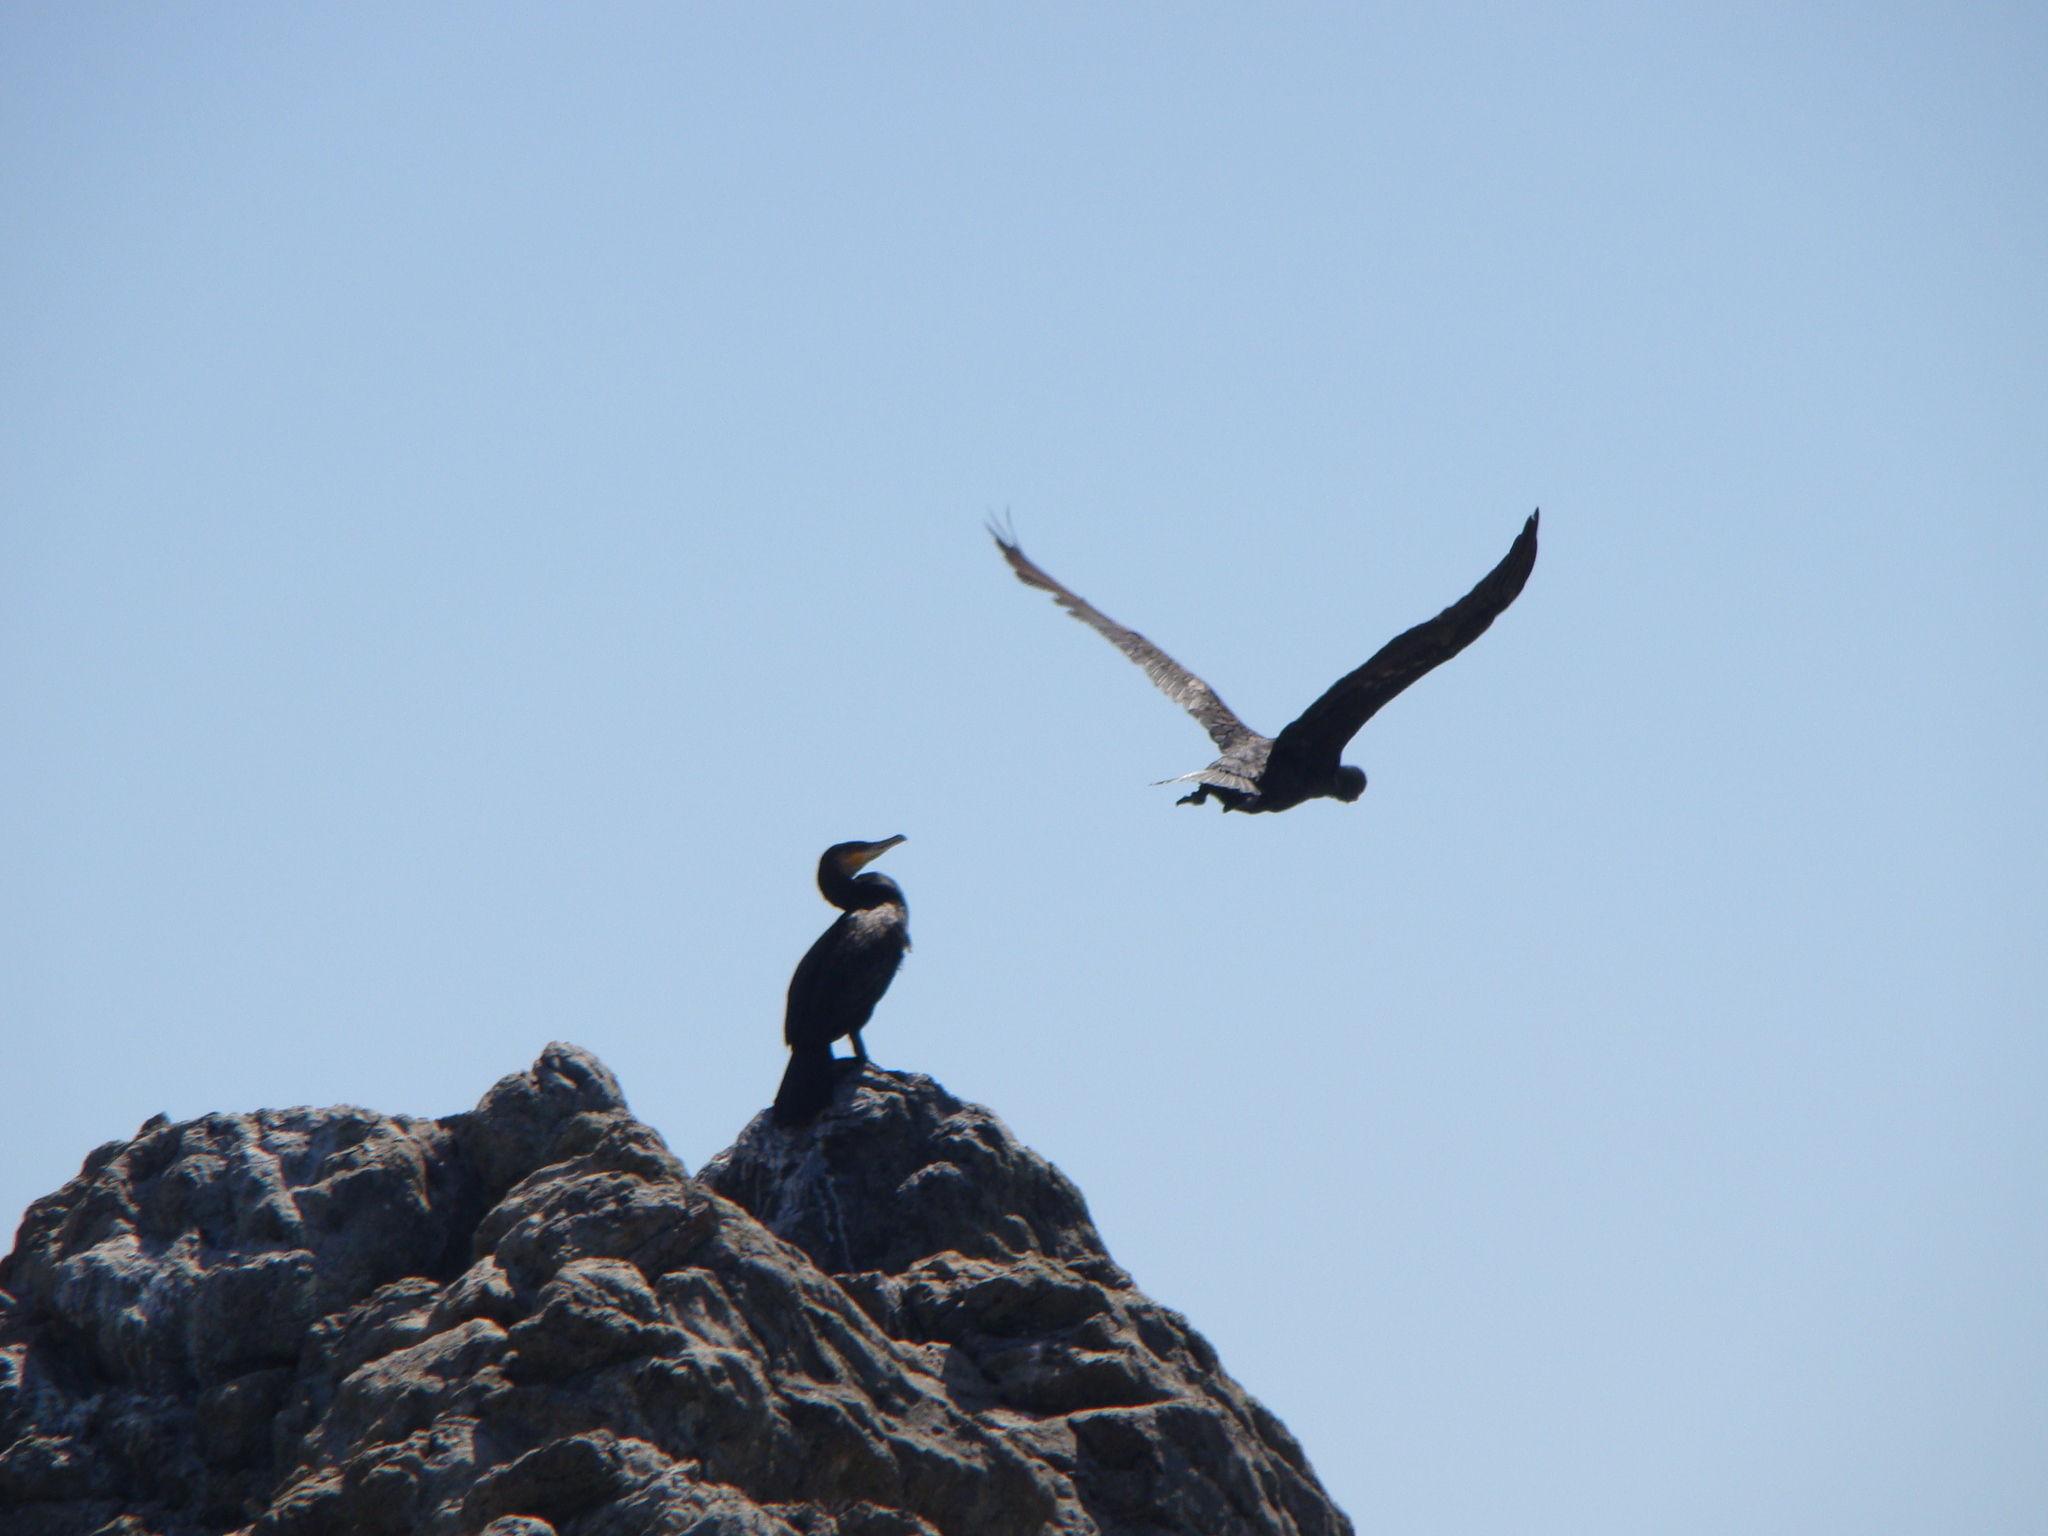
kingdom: Animalia
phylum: Chordata
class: Aves
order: Suliformes
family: Phalacrocoracidae
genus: Phalacrocorax
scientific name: Phalacrocorax carbo
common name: Great cormorant
